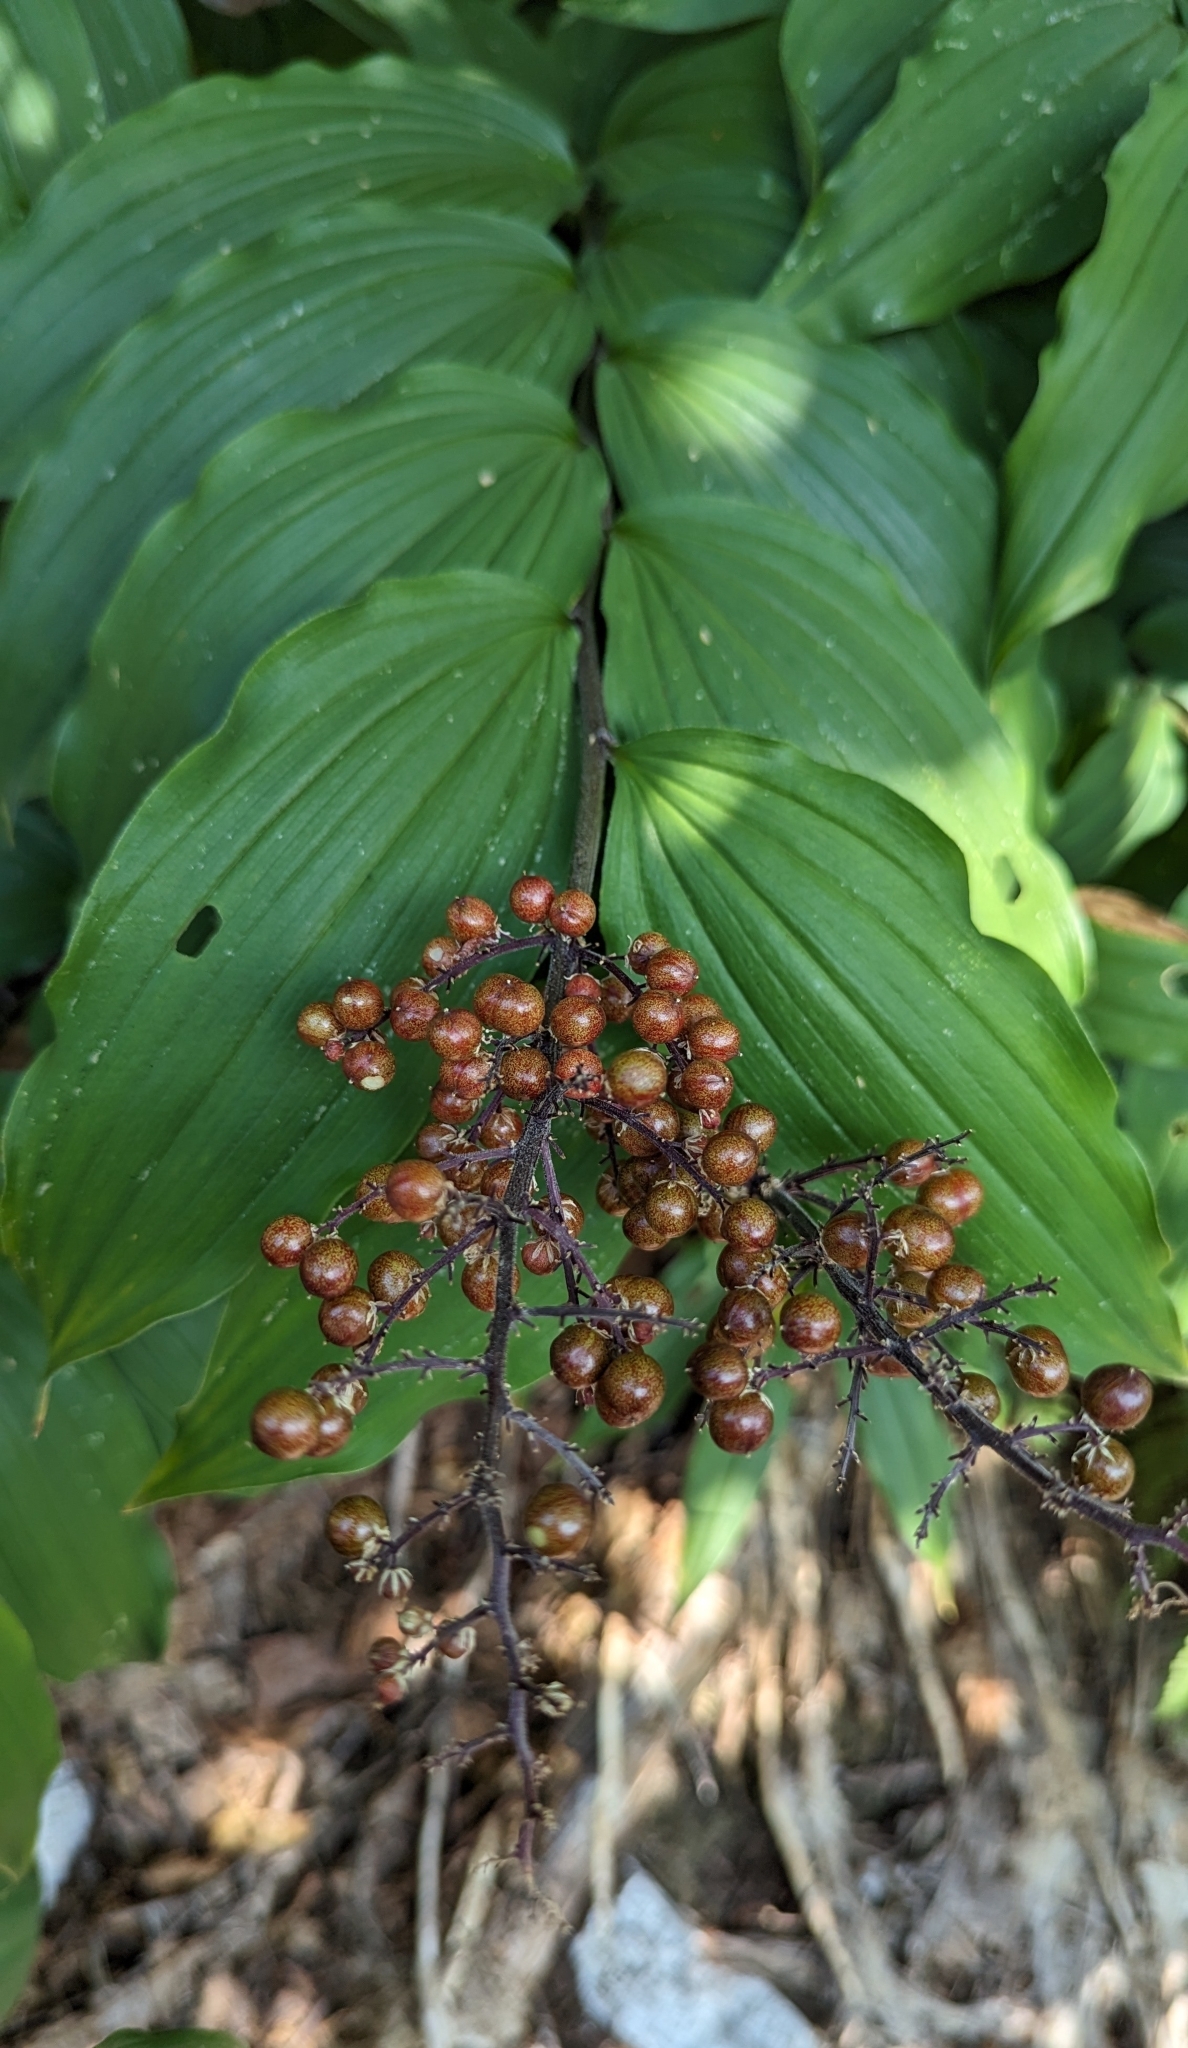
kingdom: Plantae
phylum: Tracheophyta
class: Liliopsida
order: Asparagales
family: Asparagaceae
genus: Maianthemum
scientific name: Maianthemum racemosum
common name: False spikenard
